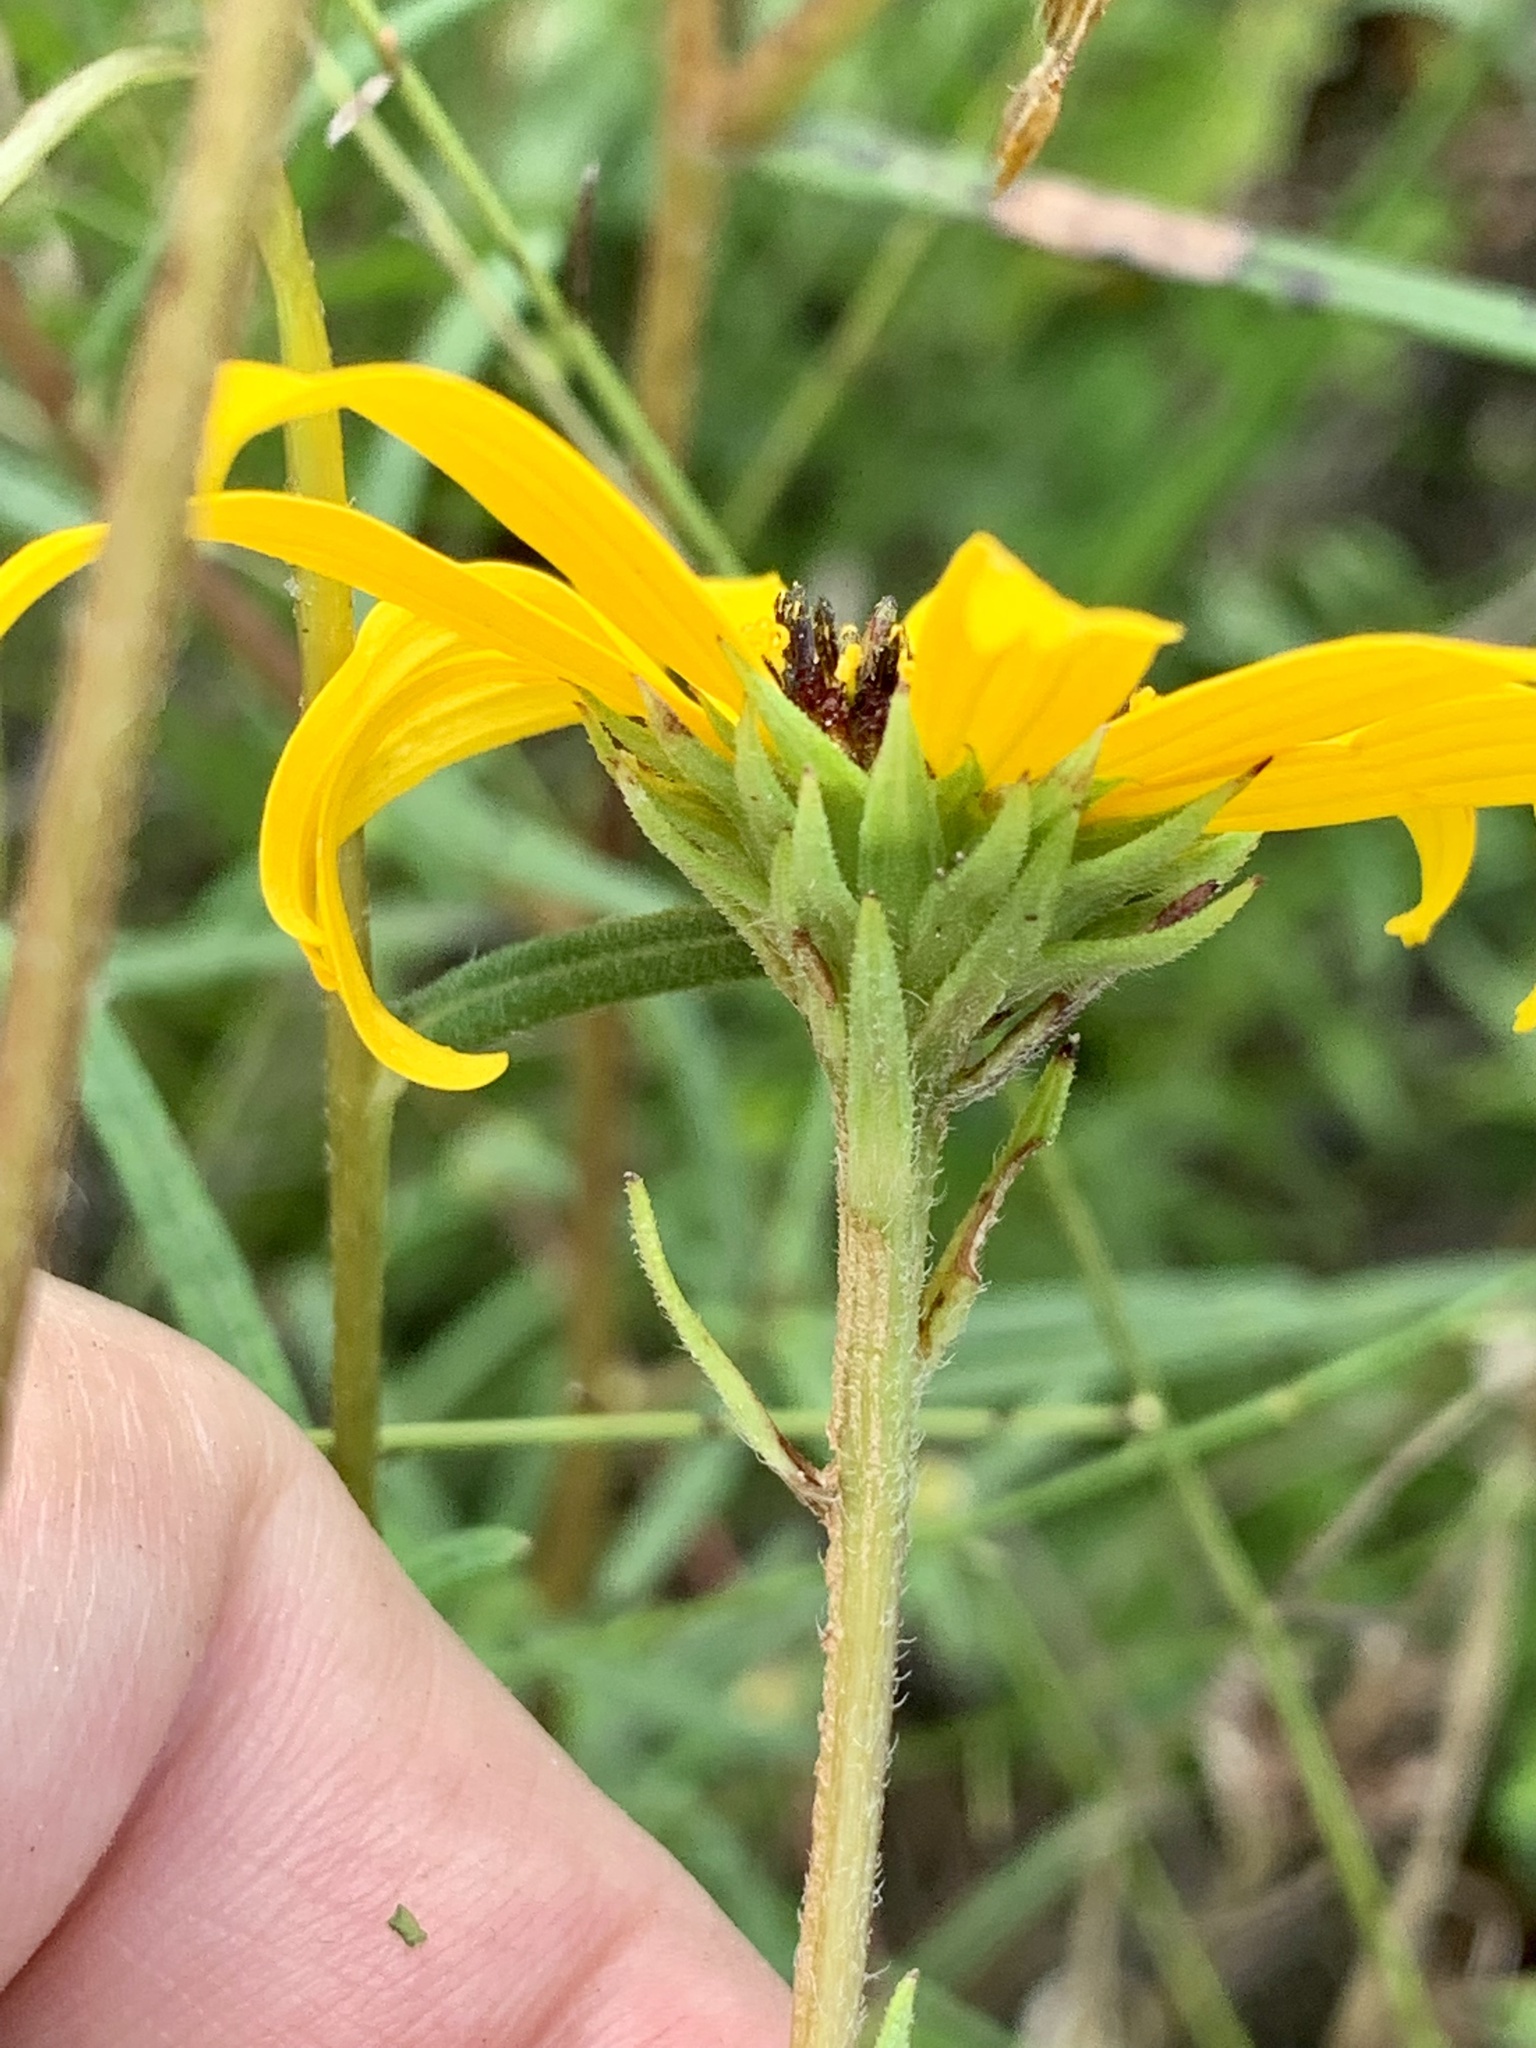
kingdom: Plantae
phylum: Tracheophyta
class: Magnoliopsida
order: Asterales
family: Asteraceae
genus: Helianthus
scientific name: Helianthus angustifolius
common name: Swamp sunflower
